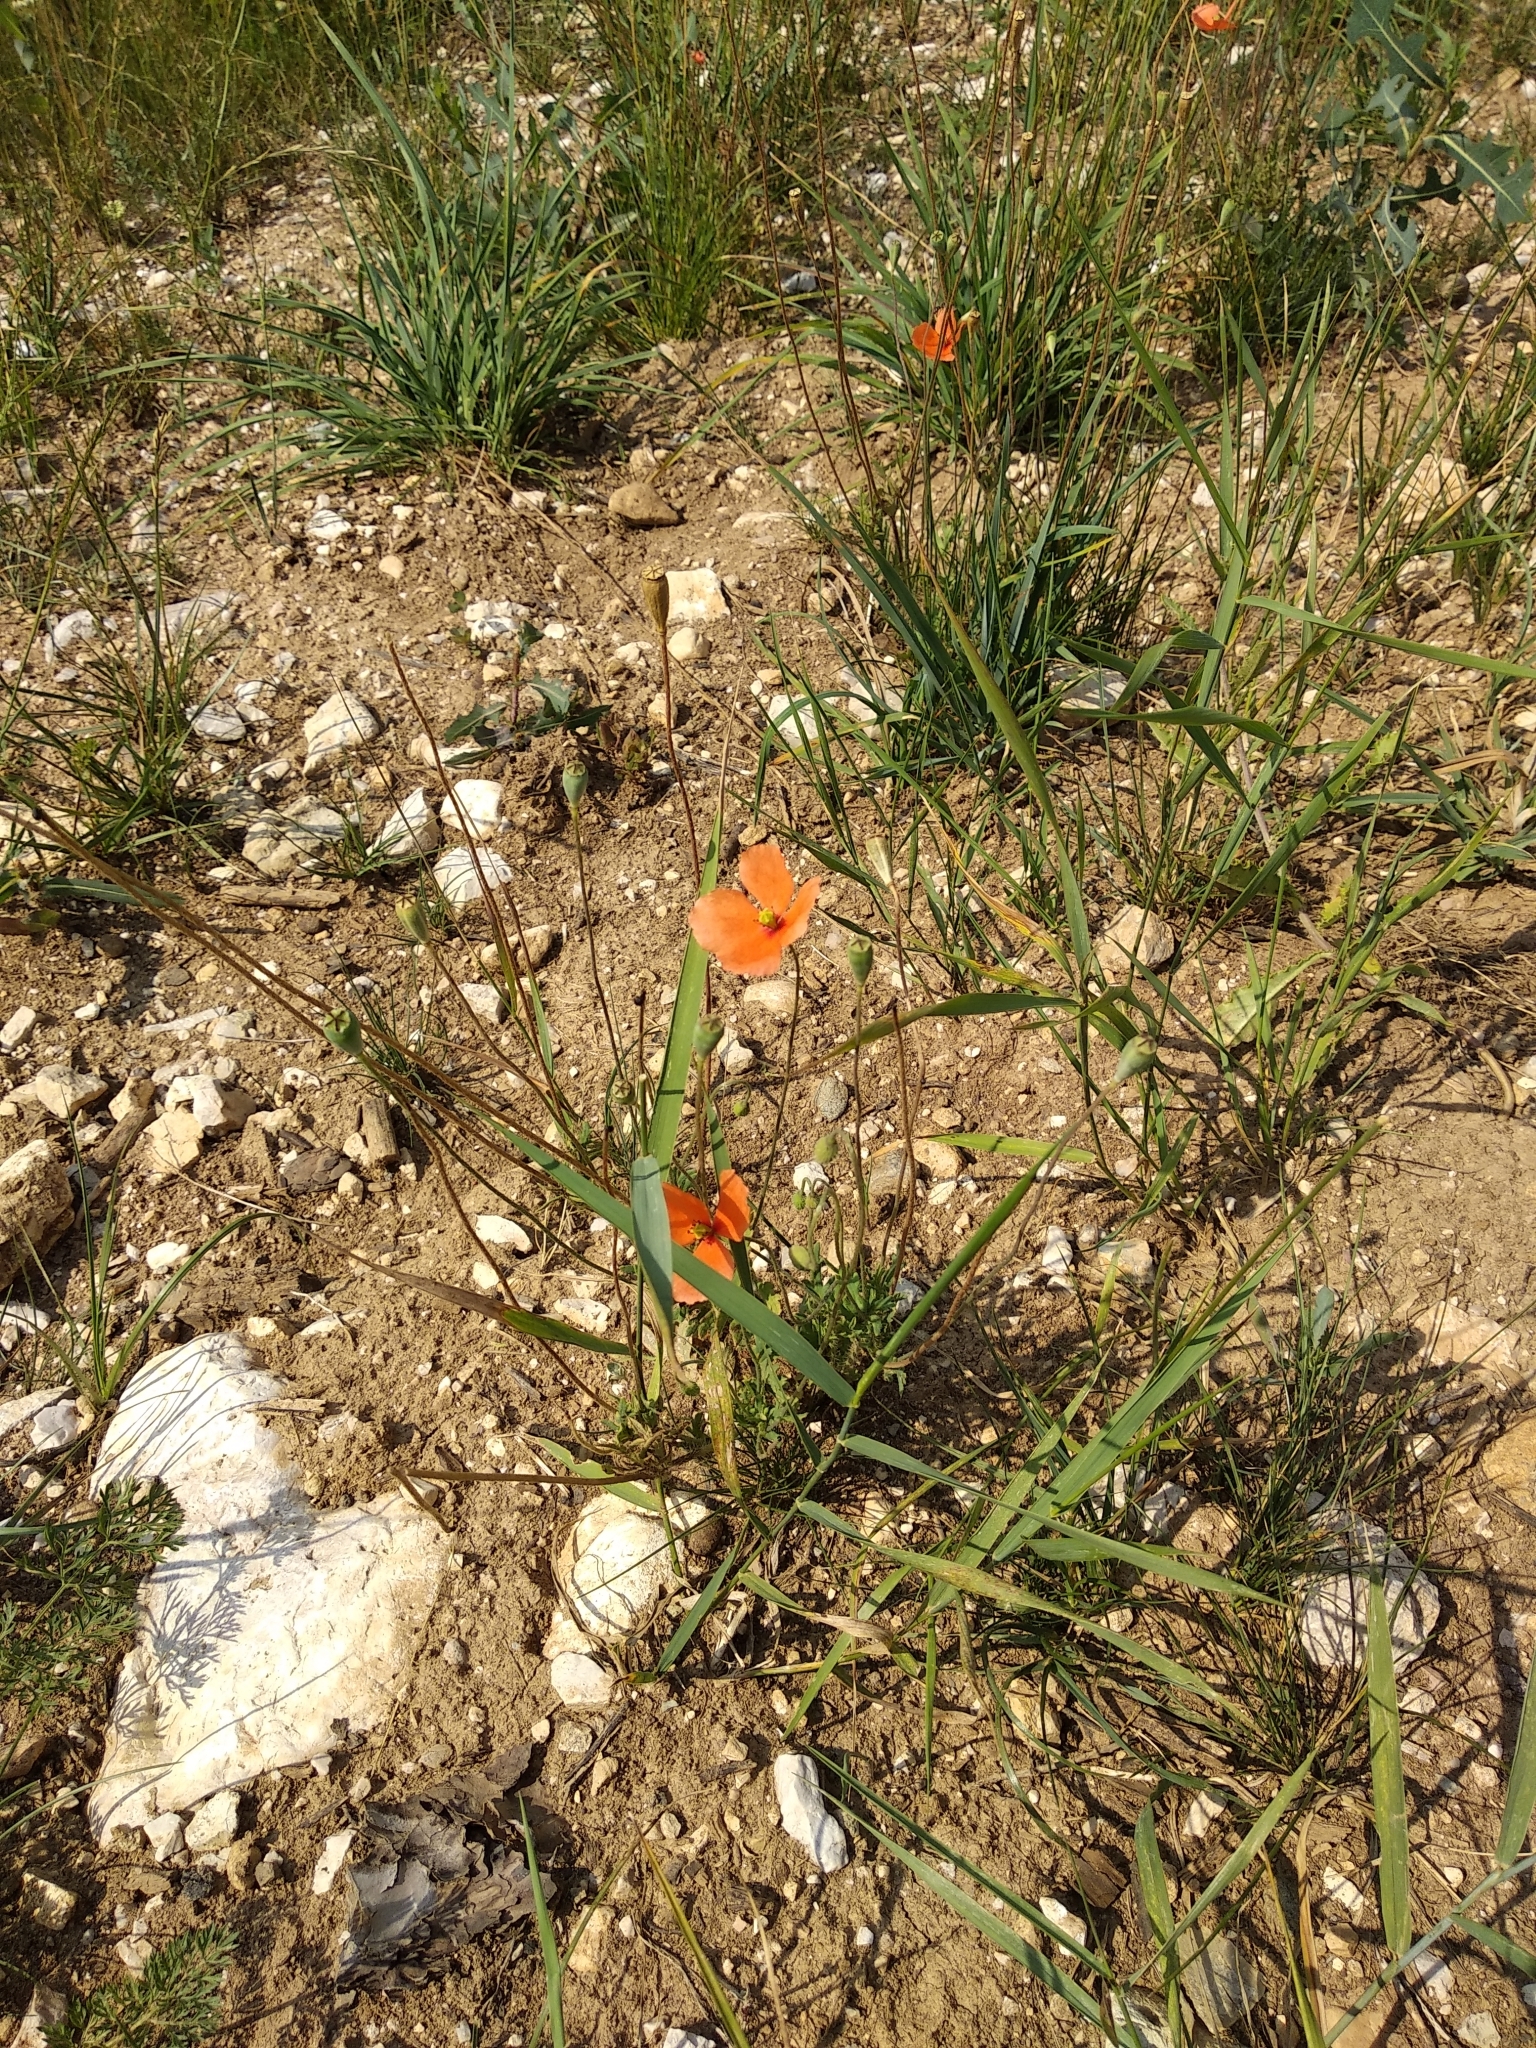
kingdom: Plantae
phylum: Tracheophyta
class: Magnoliopsida
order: Ranunculales
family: Papaveraceae
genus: Papaver
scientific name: Papaver dubium
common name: Long-headed poppy
